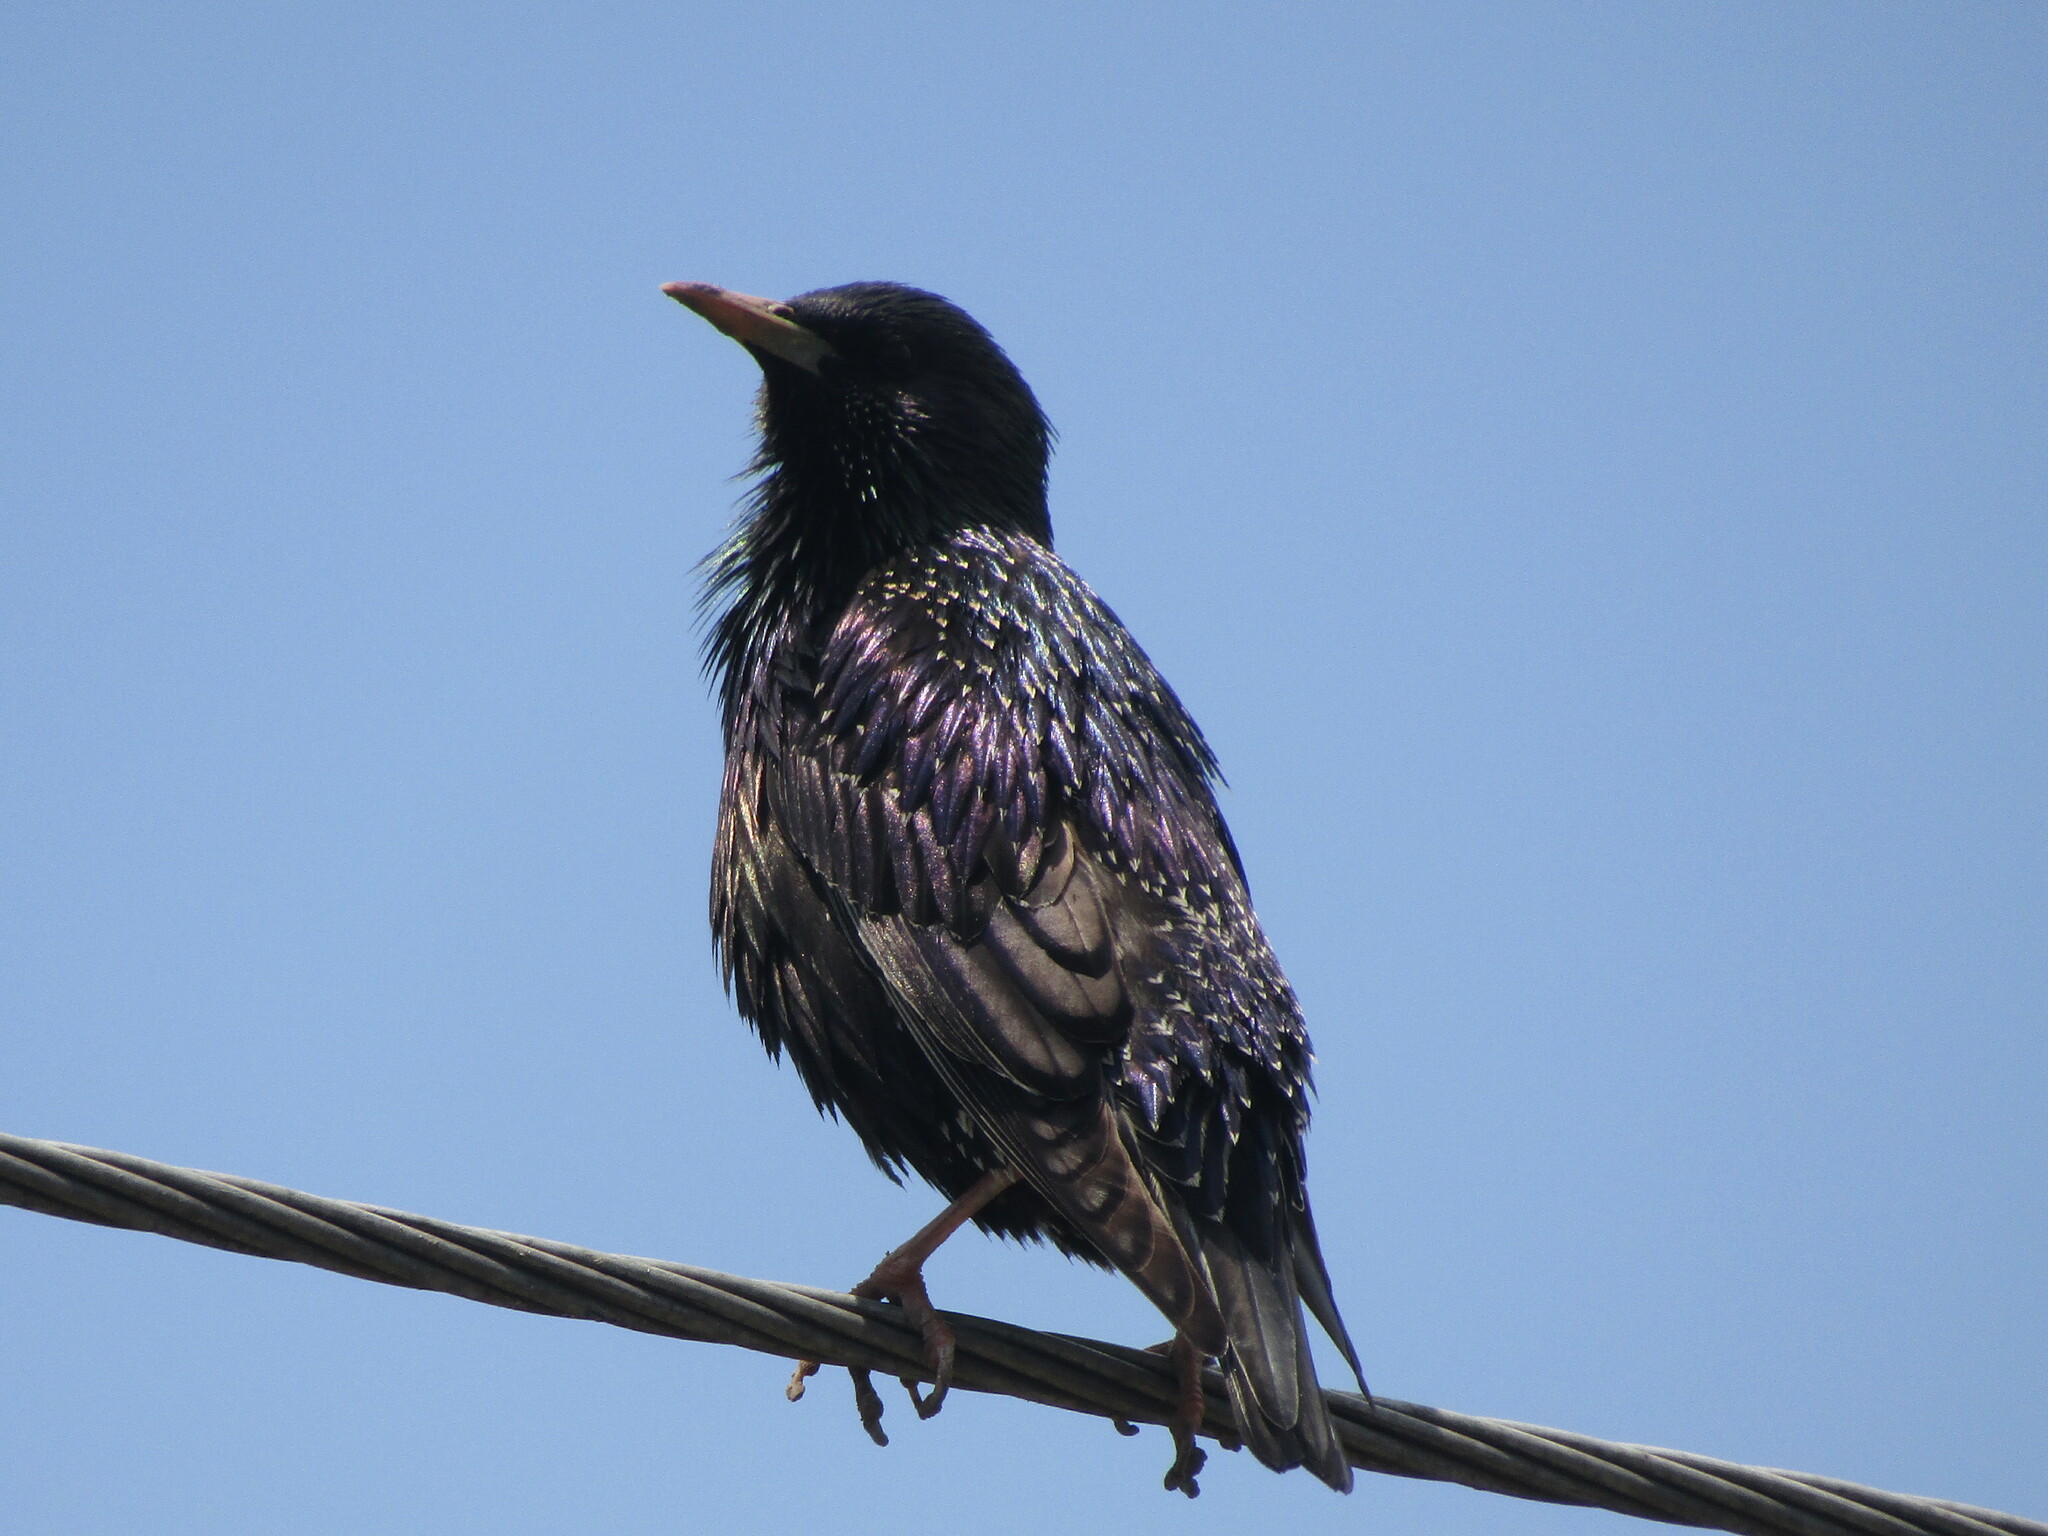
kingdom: Animalia
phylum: Chordata
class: Aves
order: Passeriformes
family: Sturnidae
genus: Sturnus
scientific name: Sturnus vulgaris
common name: Common starling
